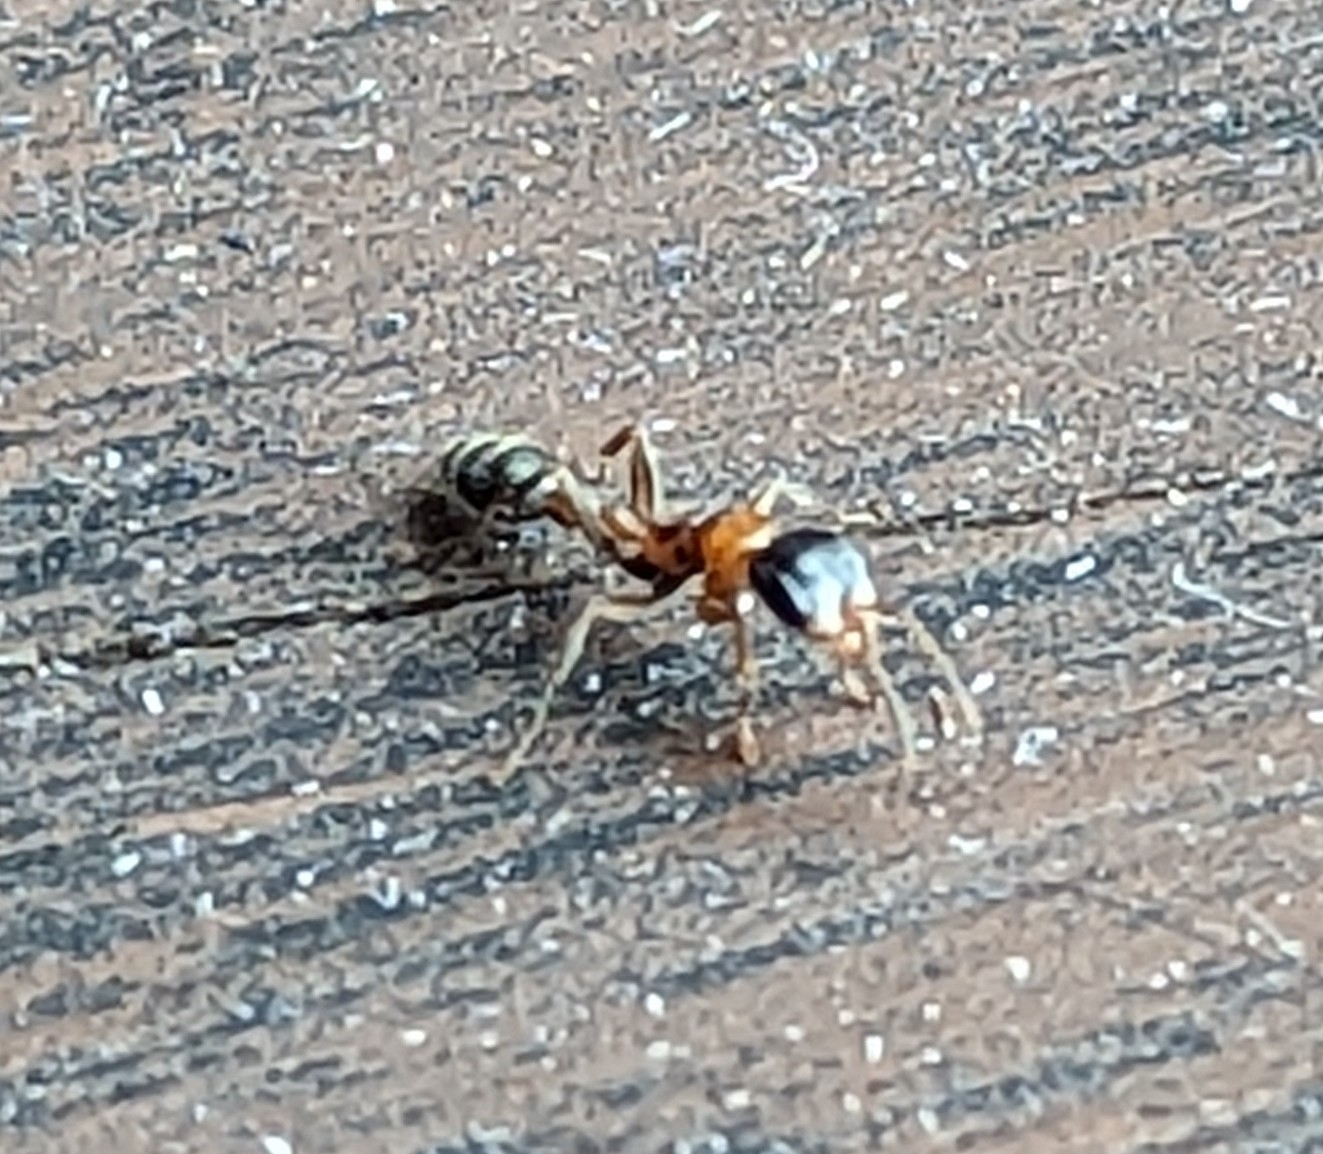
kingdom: Animalia
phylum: Arthropoda
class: Insecta
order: Hymenoptera
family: Formicidae
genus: Pseudomyrmex
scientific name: Pseudomyrmex gracilis
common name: Graceful twig ant
